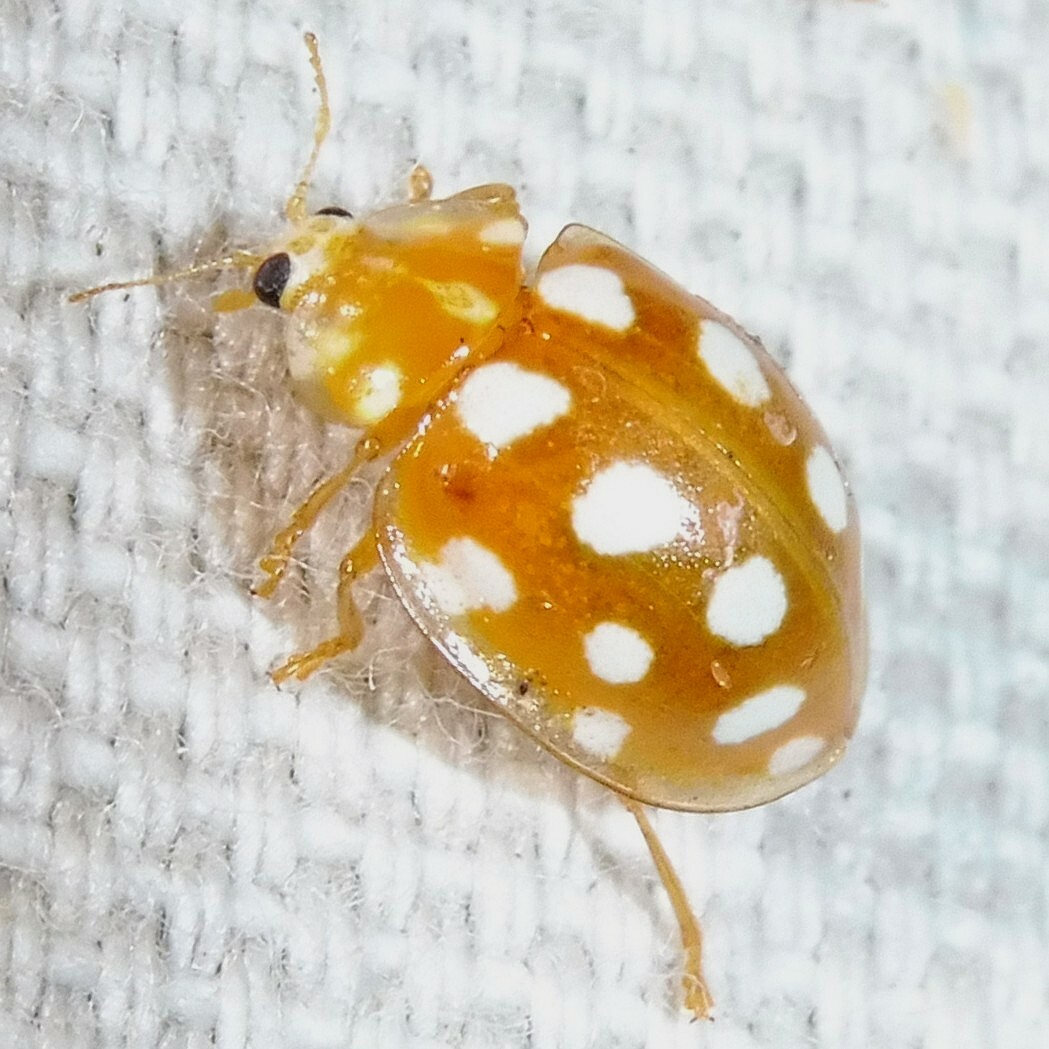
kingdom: Animalia
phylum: Arthropoda
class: Insecta
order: Coleoptera
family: Coccinellidae
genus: Halyzia
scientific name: Halyzia sedecimguttata
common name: Orange ladybird
